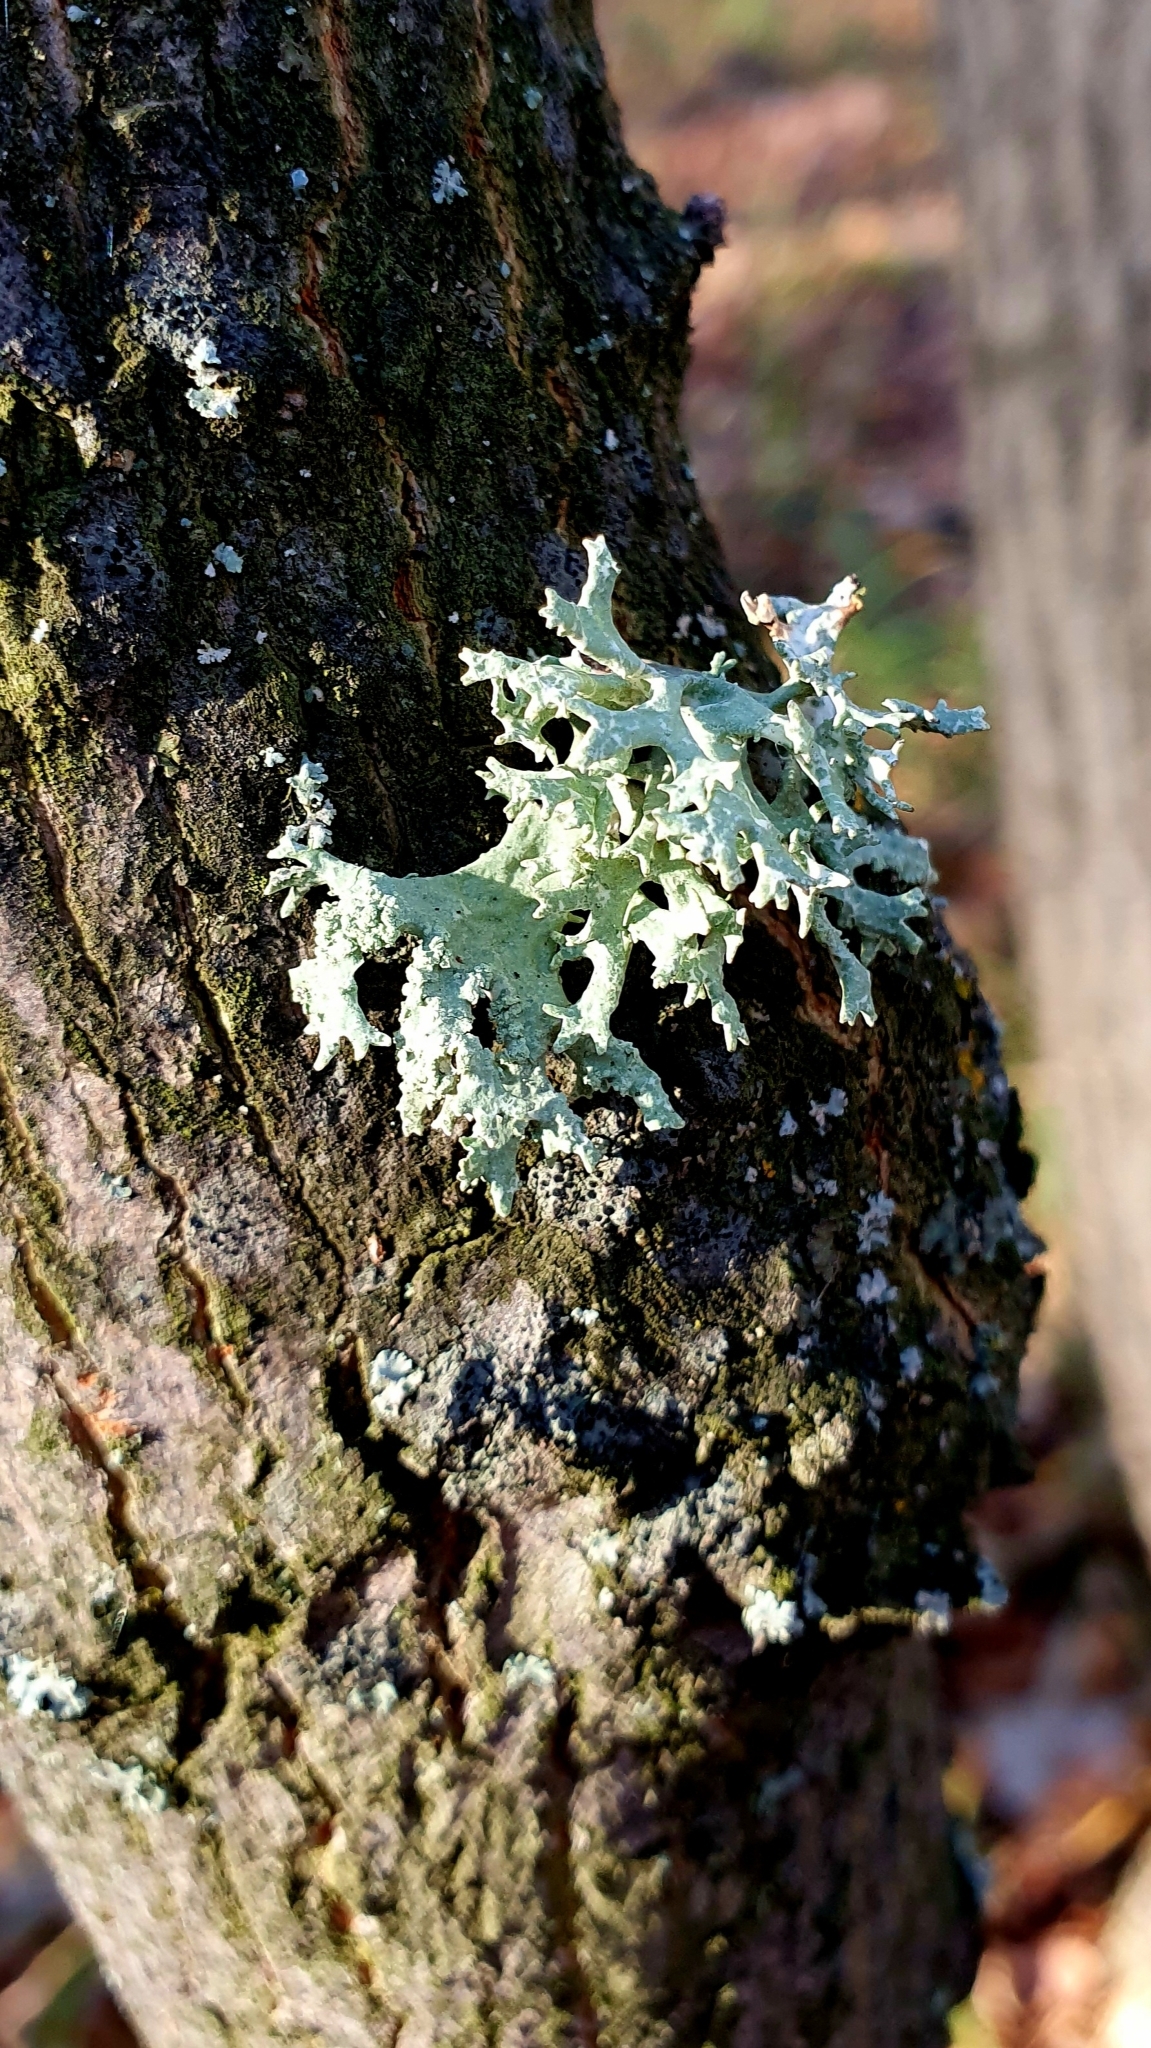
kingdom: Fungi
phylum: Ascomycota
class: Lecanoromycetes
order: Lecanorales
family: Parmeliaceae
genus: Evernia
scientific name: Evernia prunastri
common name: Oak moss
